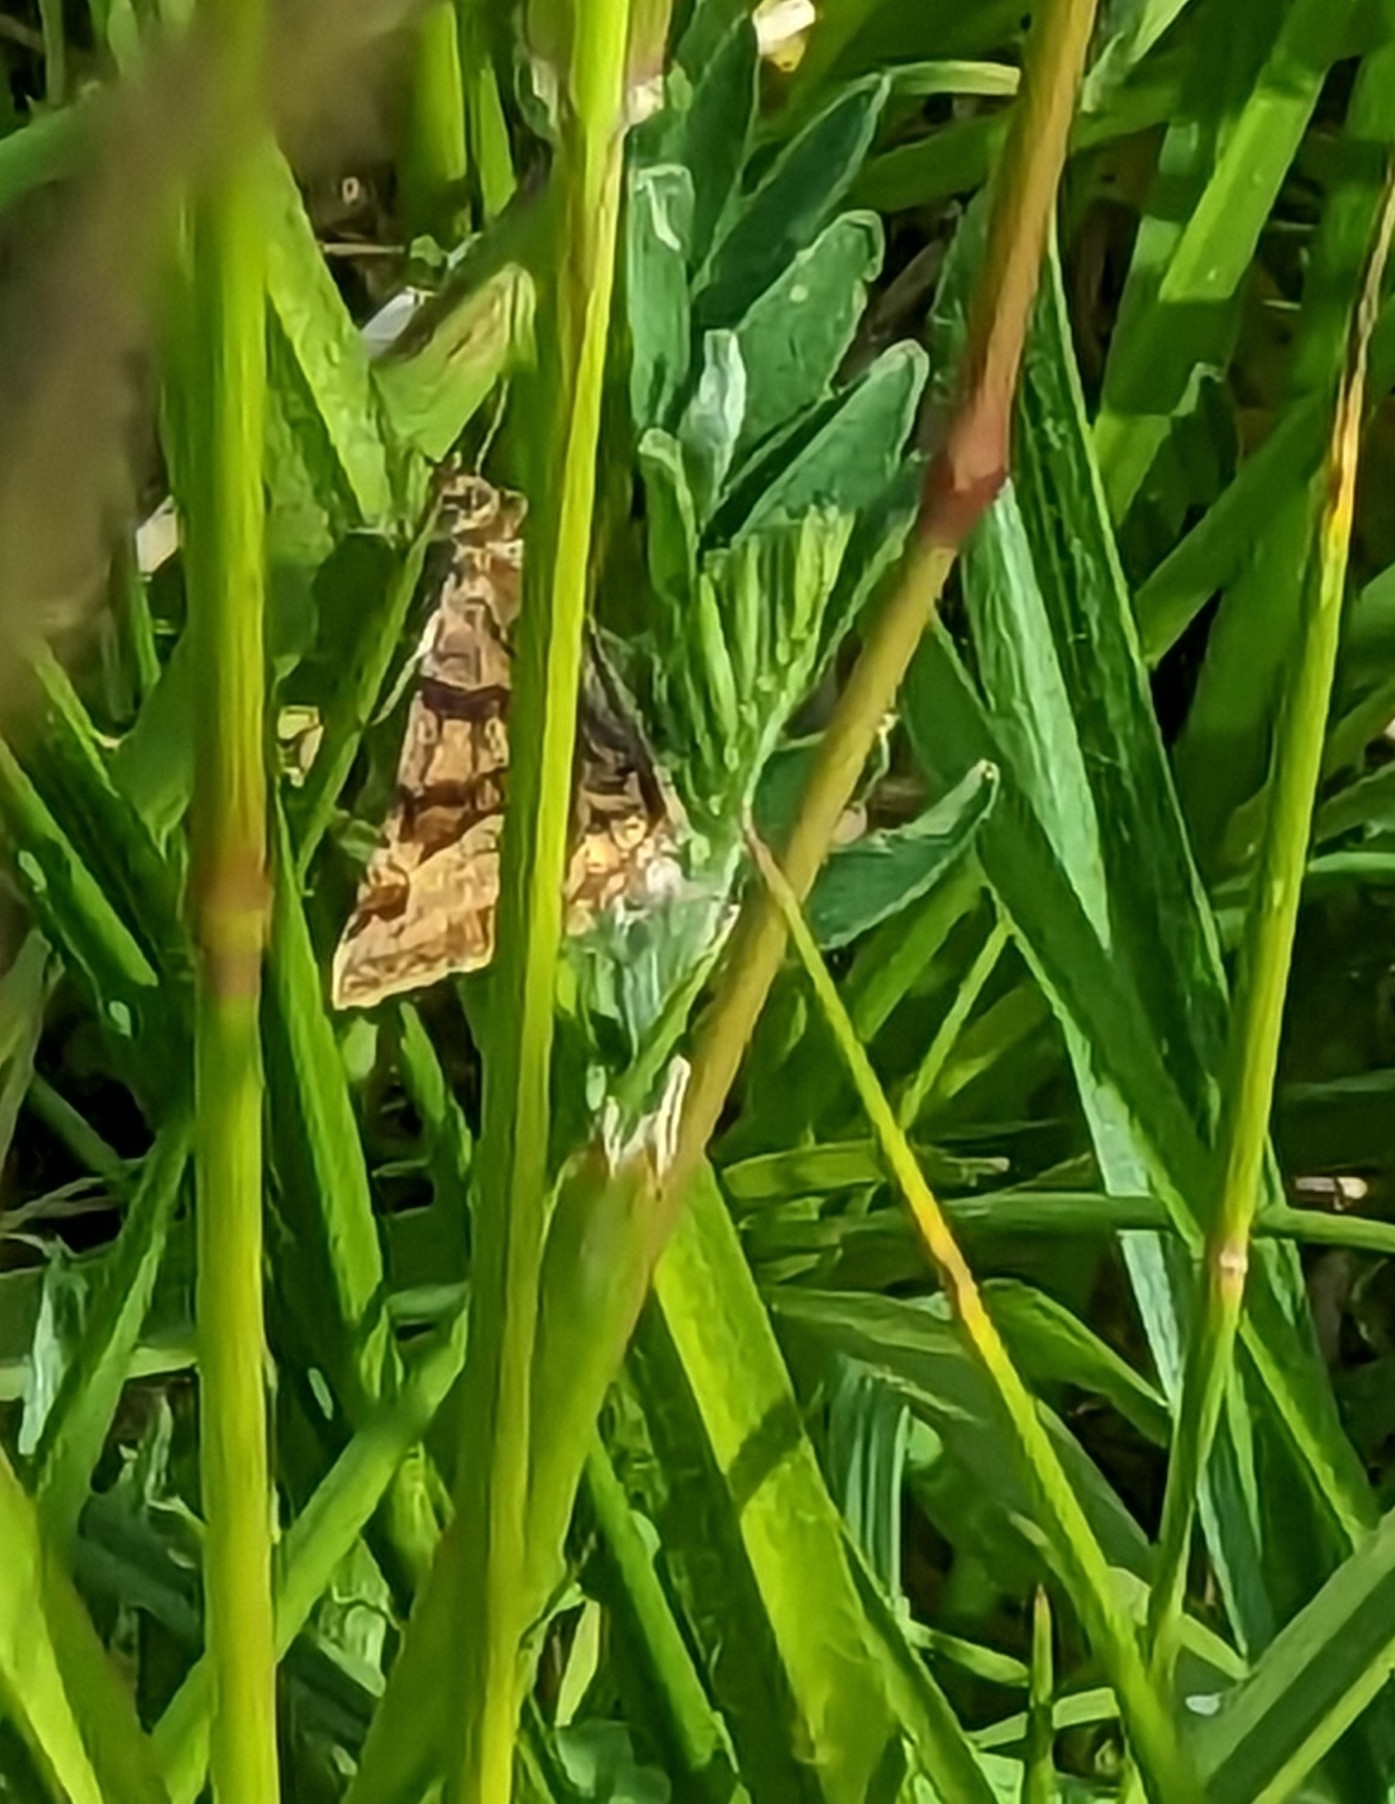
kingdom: Animalia
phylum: Arthropoda
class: Insecta
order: Lepidoptera
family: Erebidae
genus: Euclidia
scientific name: Euclidia glyphica
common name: Burnet companion
